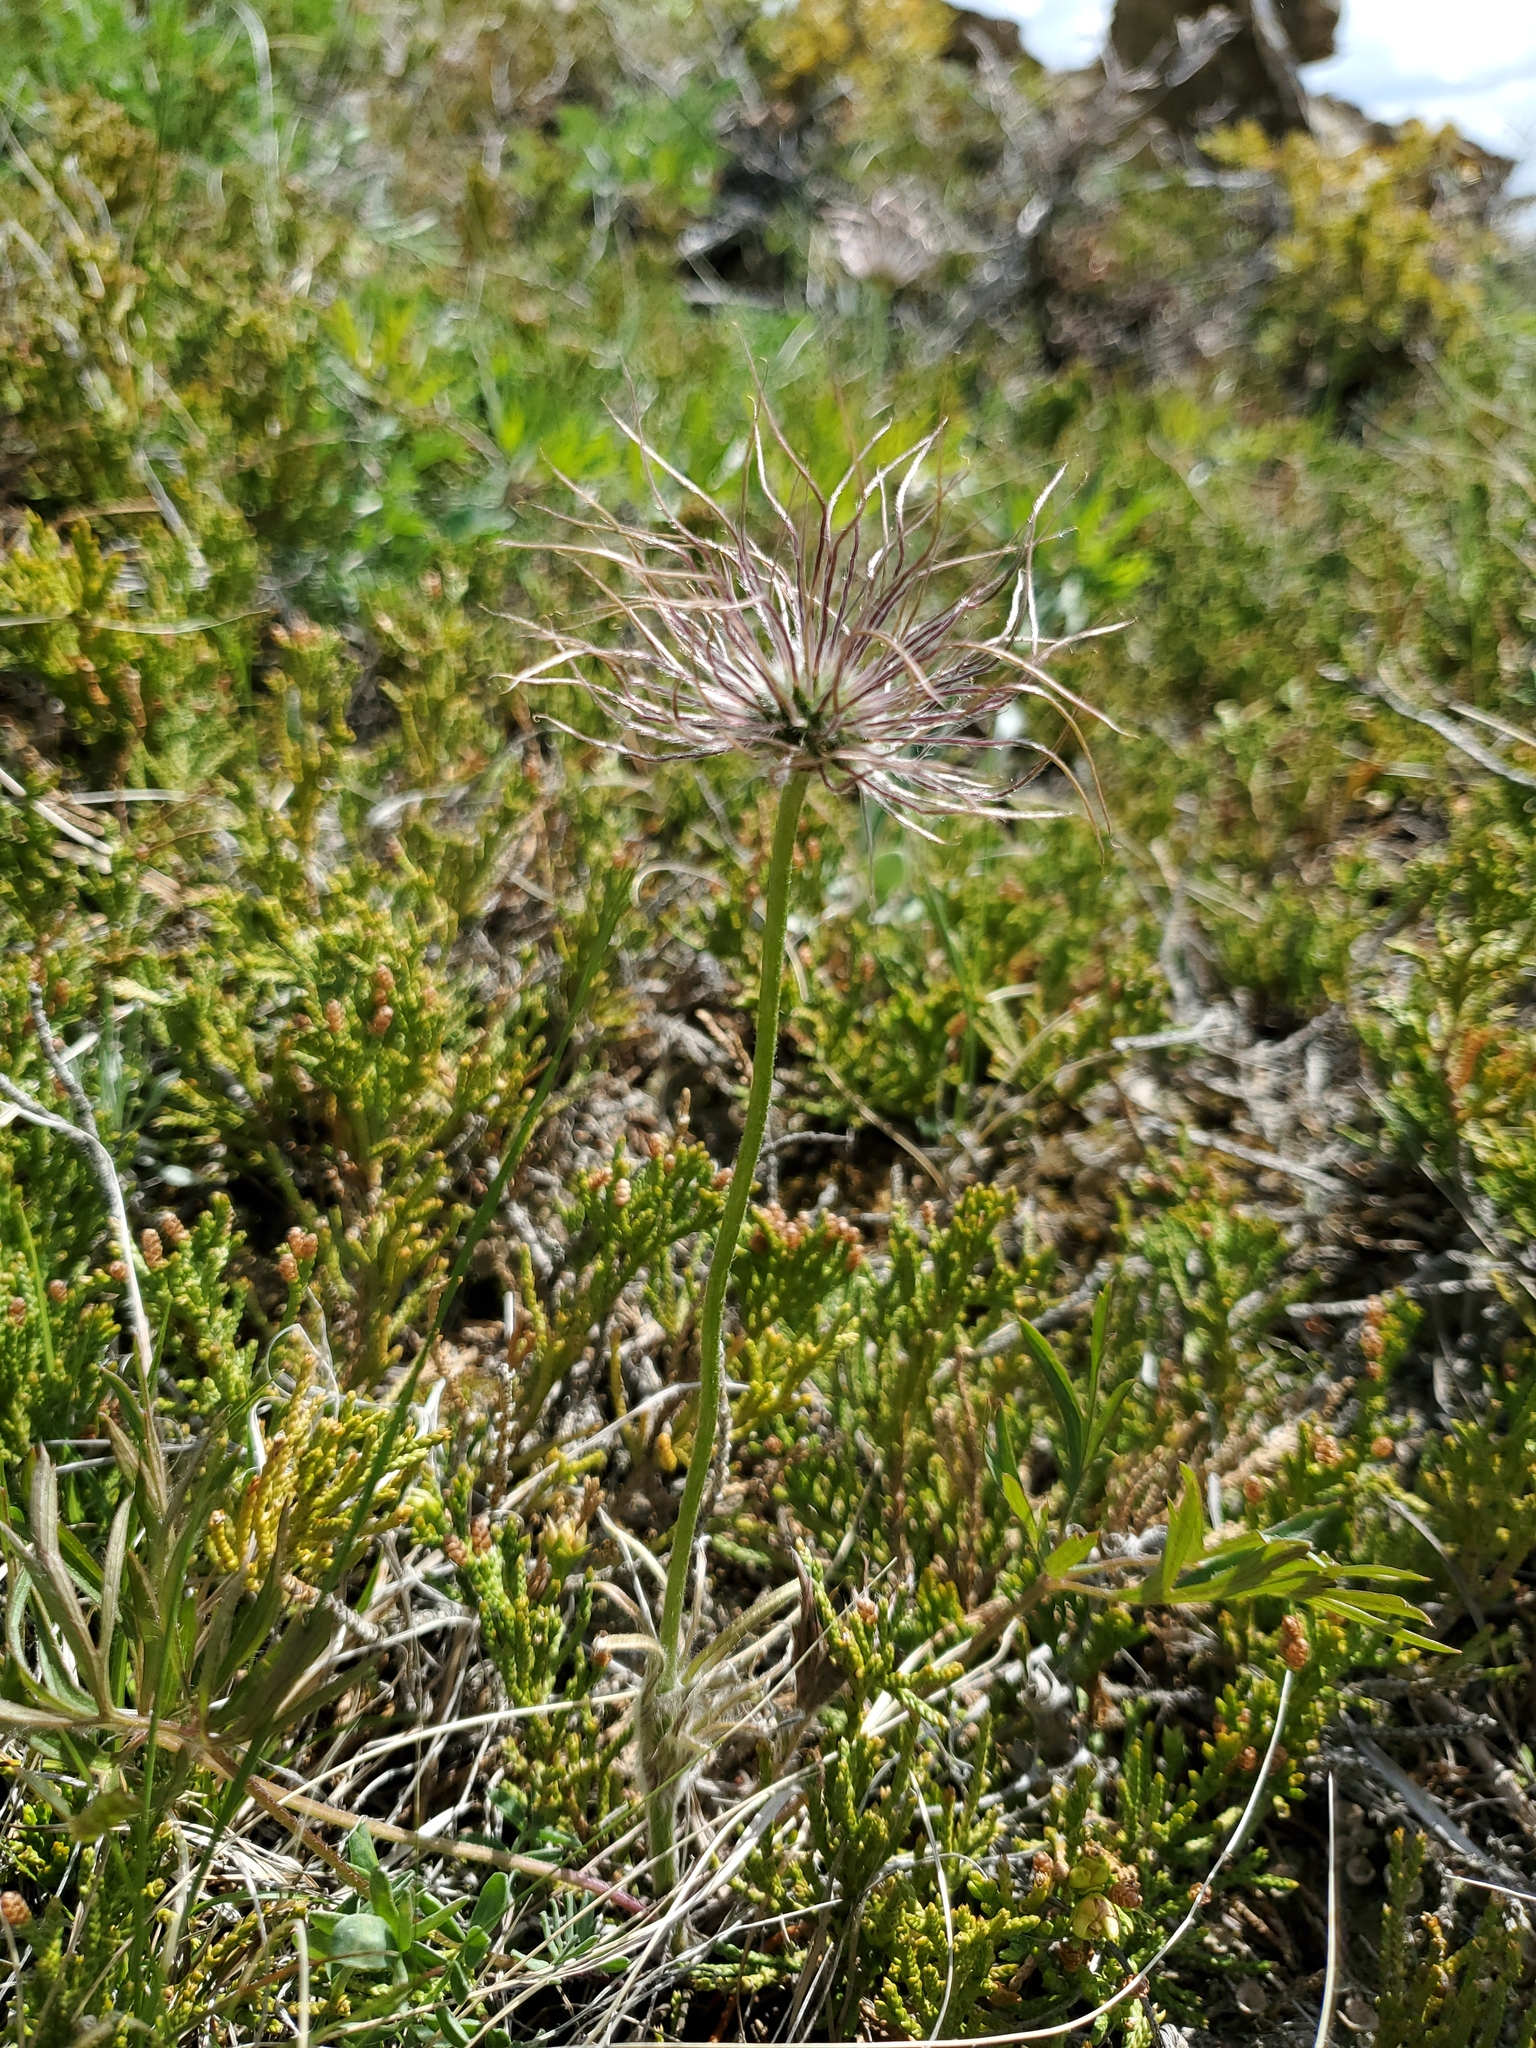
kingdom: Plantae
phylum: Tracheophyta
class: Magnoliopsida
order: Ranunculales
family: Ranunculaceae
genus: Pulsatilla
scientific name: Pulsatilla nuttalliana
